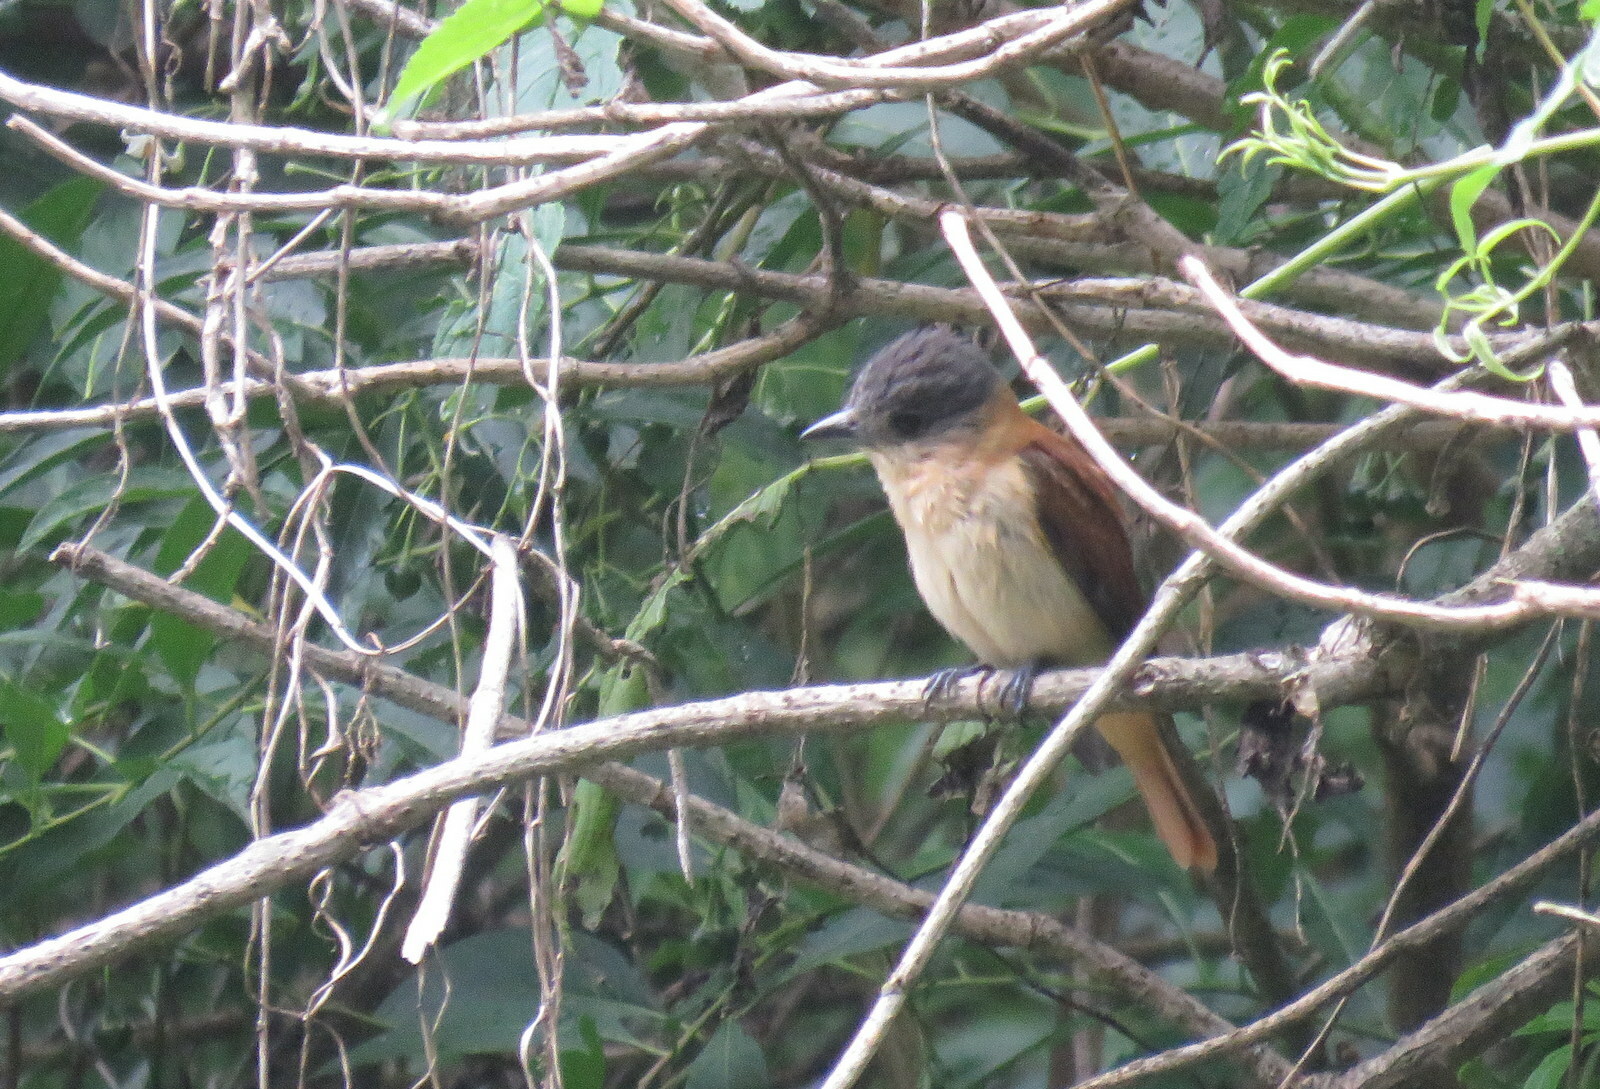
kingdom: Animalia
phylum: Chordata
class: Aves
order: Passeriformes
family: Cotingidae
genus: Pachyramphus
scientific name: Pachyramphus validus
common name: Crested becard
